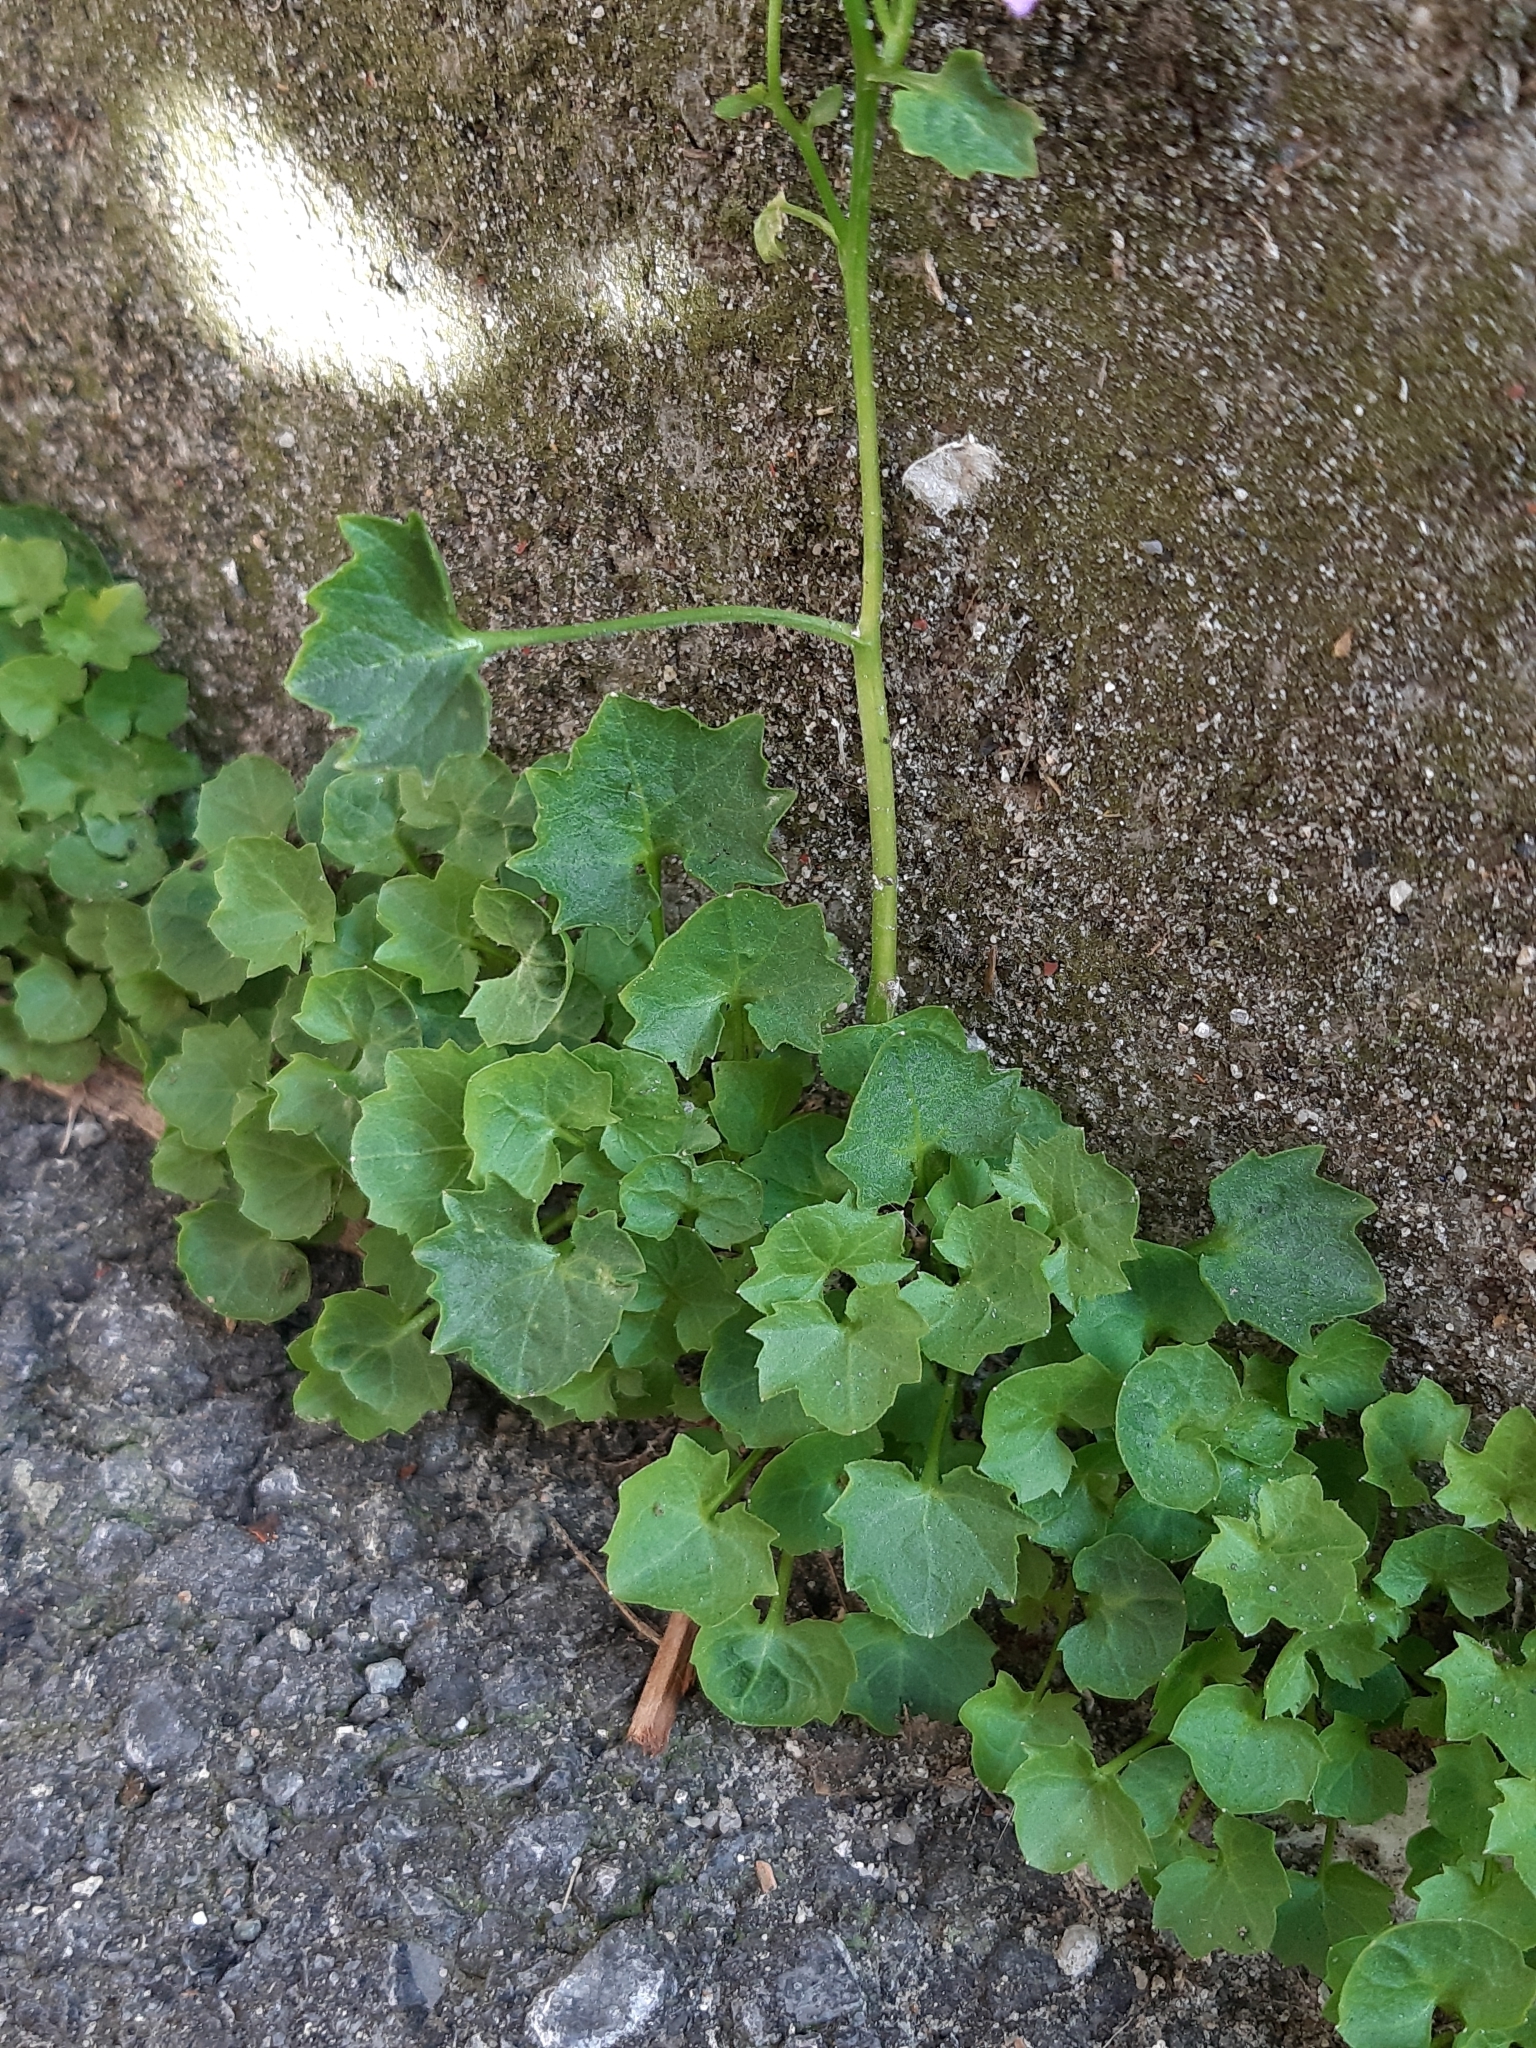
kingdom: Plantae
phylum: Tracheophyta
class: Magnoliopsida
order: Asterales
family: Campanulaceae
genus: Campanula
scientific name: Campanula poscharskyana
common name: Trailing bellflower
